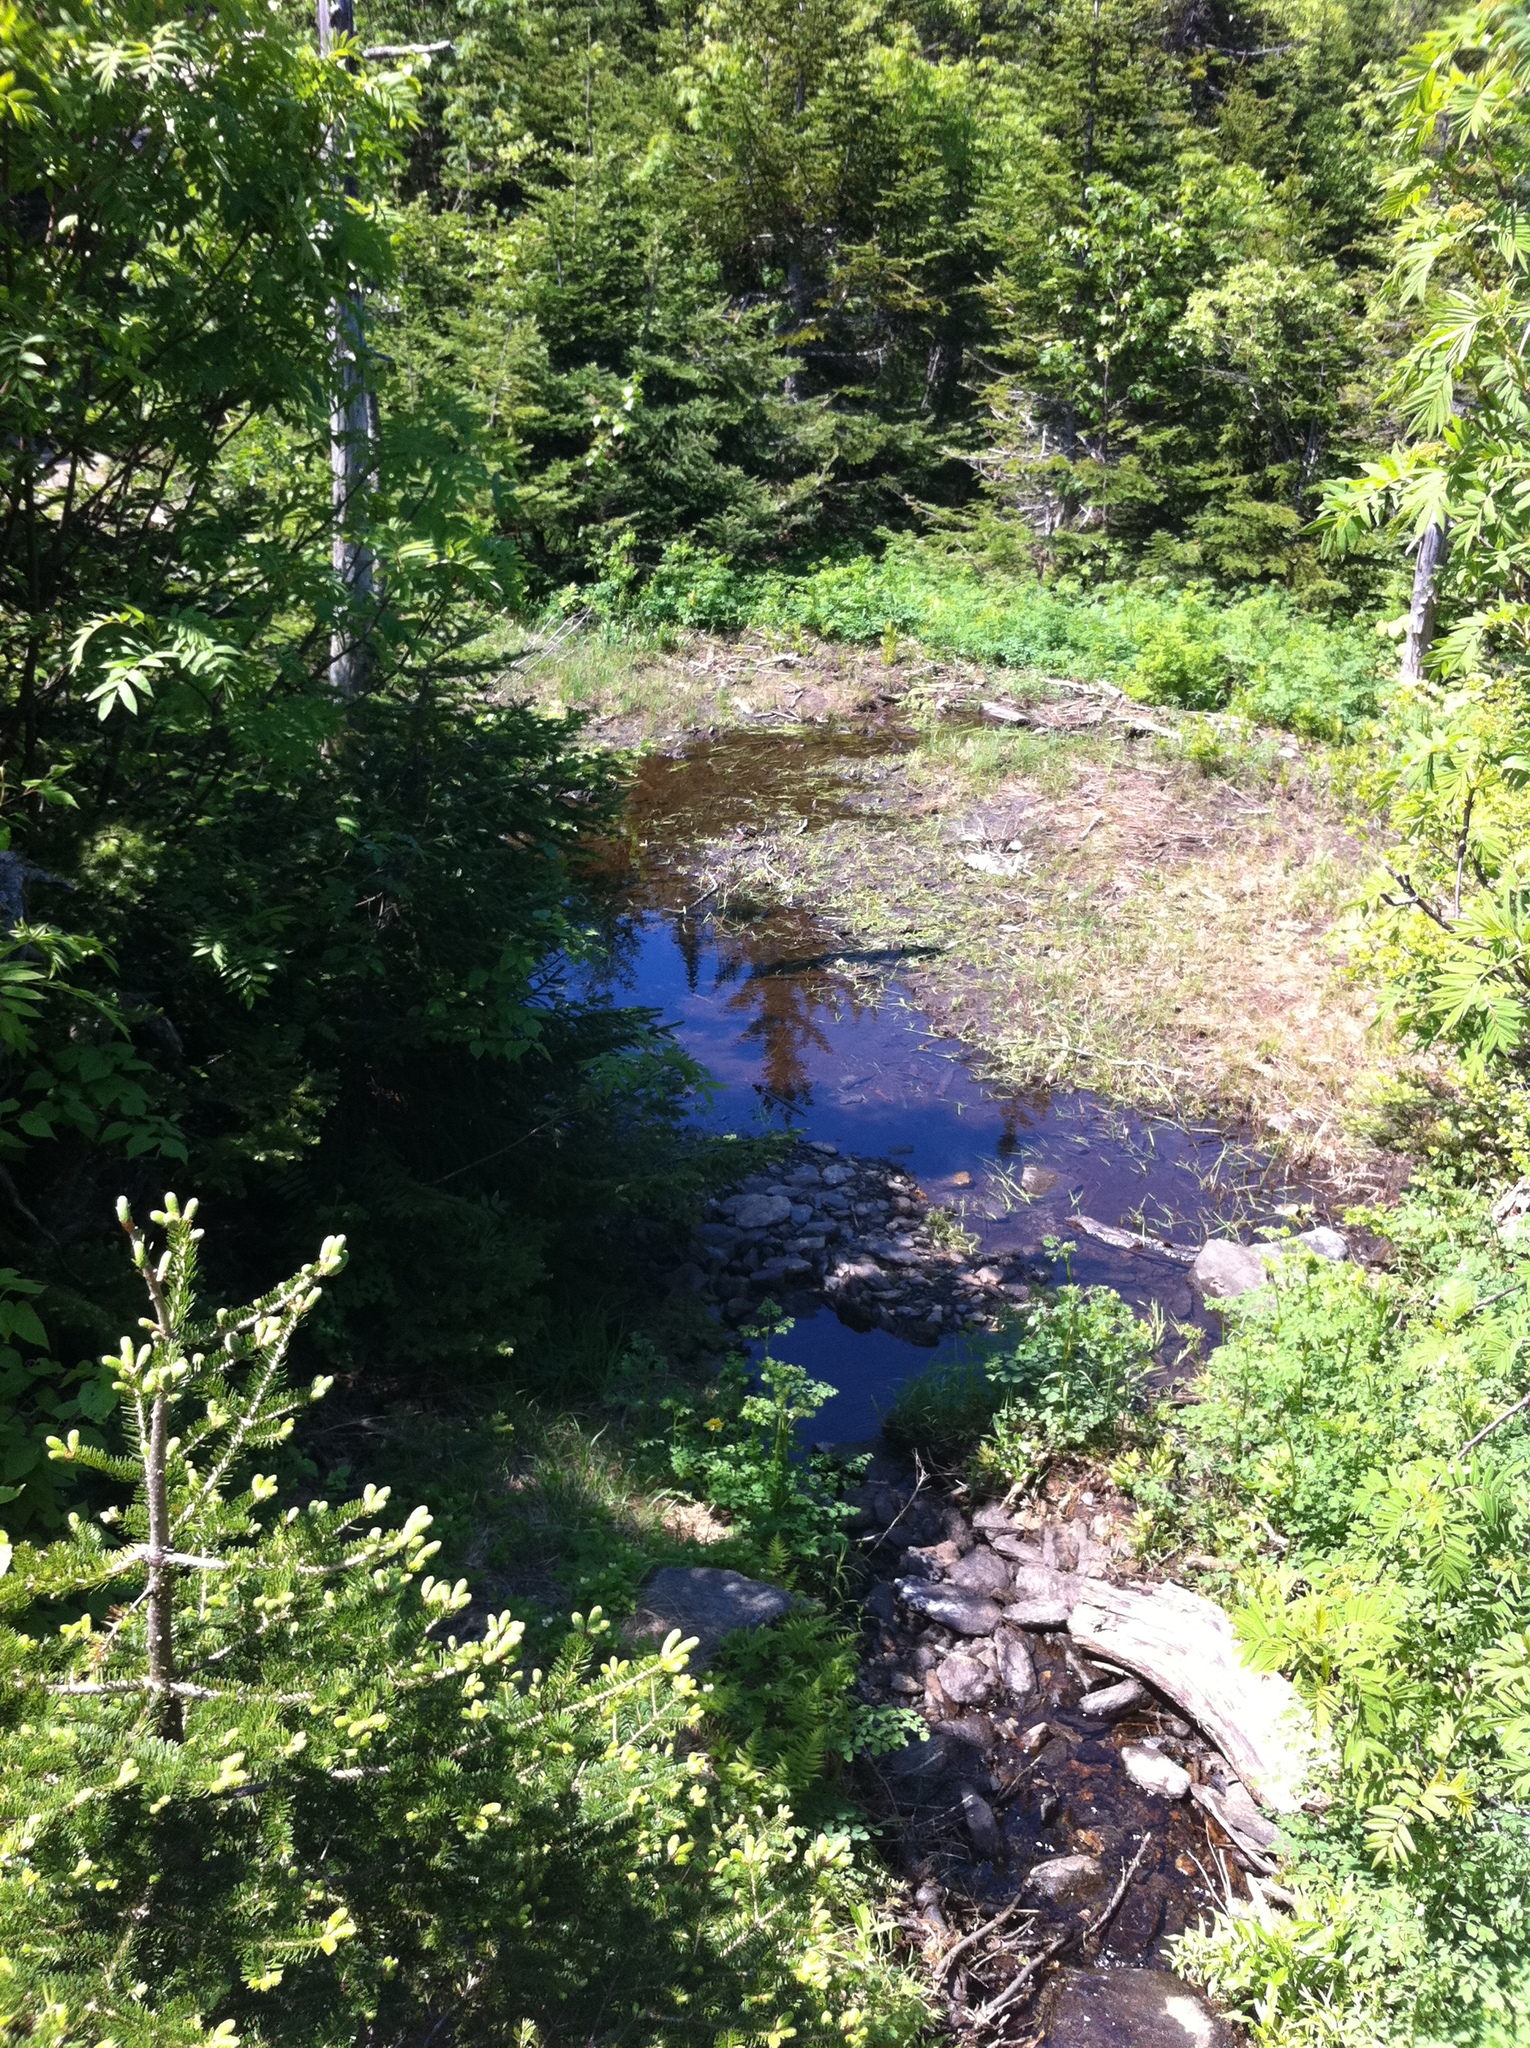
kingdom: Plantae
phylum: Tracheophyta
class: Pinopsida
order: Pinales
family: Pinaceae
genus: Abies
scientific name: Abies balsamea
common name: Balsam fir
